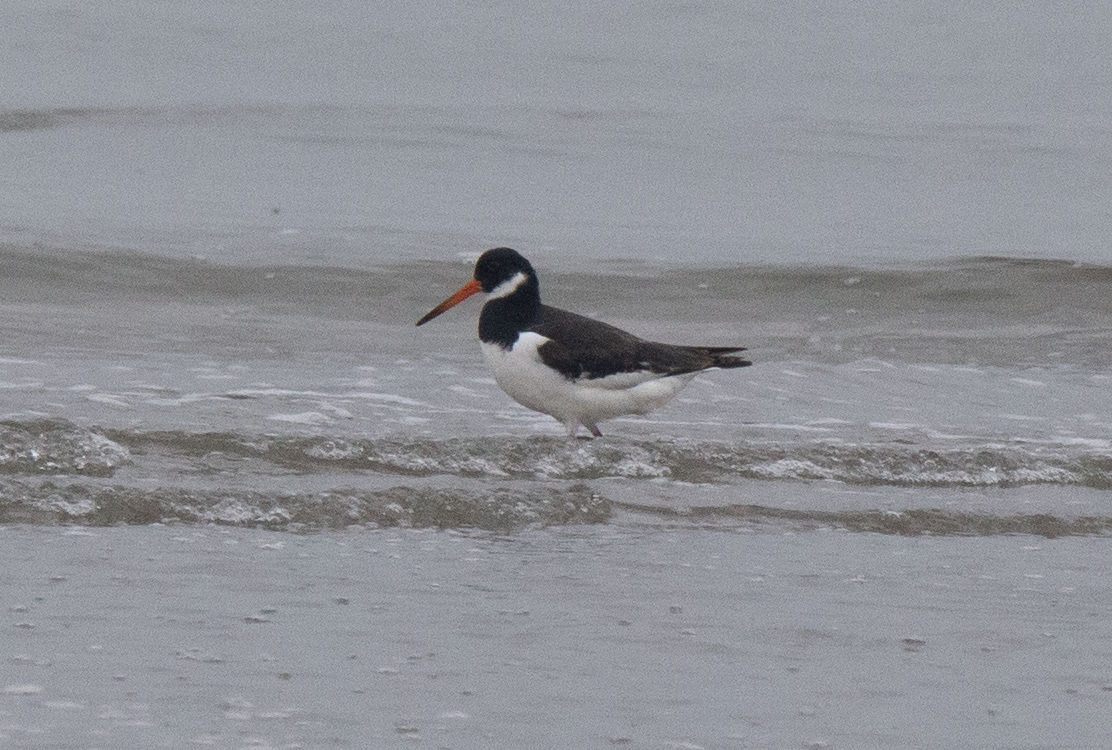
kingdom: Animalia
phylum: Chordata
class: Aves
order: Charadriiformes
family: Haematopodidae
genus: Haematopus
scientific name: Haematopus ostralegus
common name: Eurasian oystercatcher
